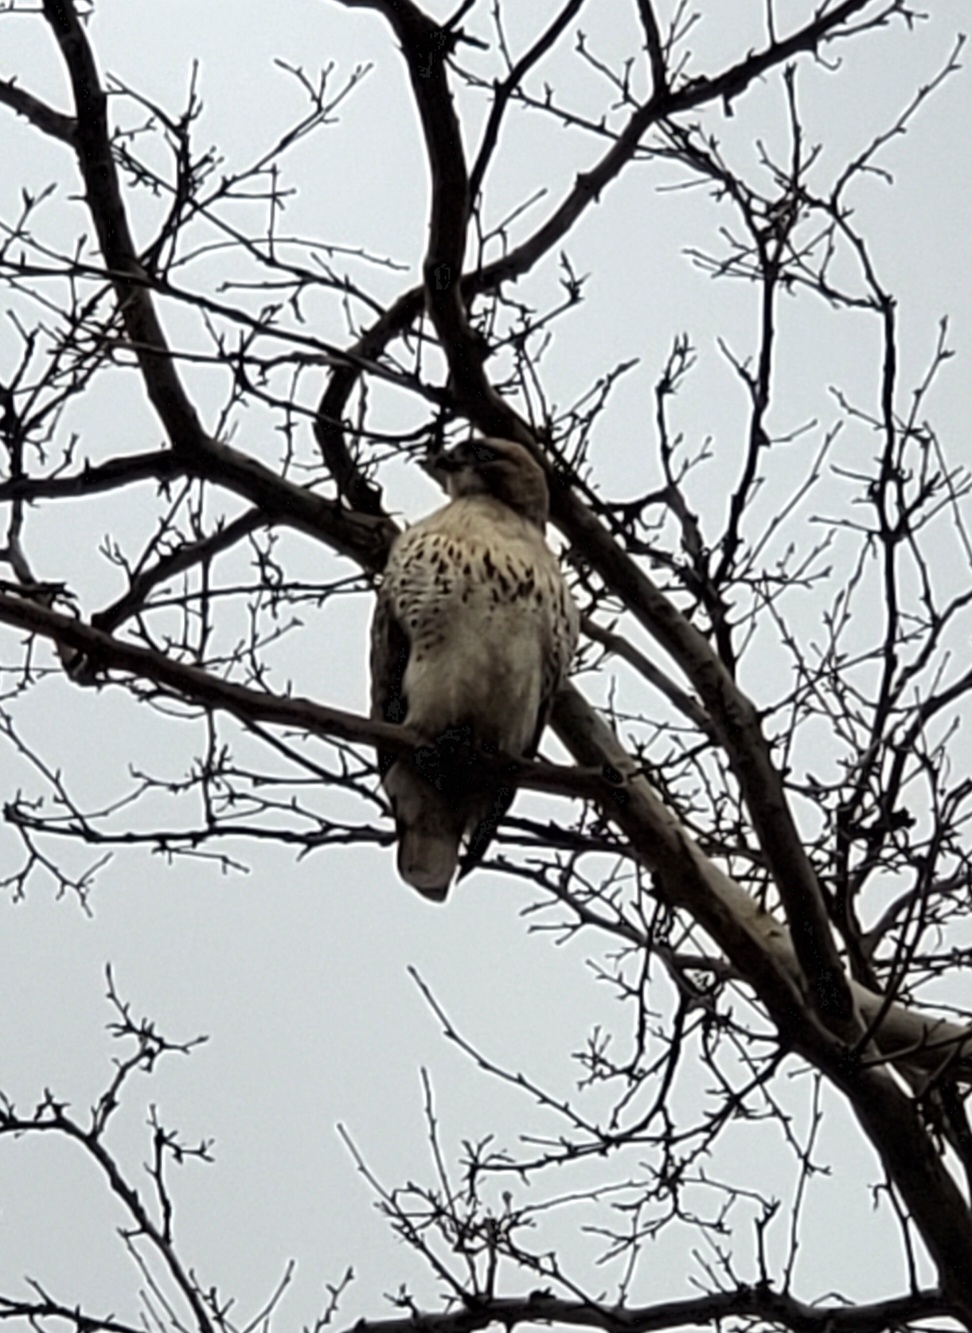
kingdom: Animalia
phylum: Chordata
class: Aves
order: Accipitriformes
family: Accipitridae
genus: Buteo
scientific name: Buteo jamaicensis
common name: Red-tailed hawk
